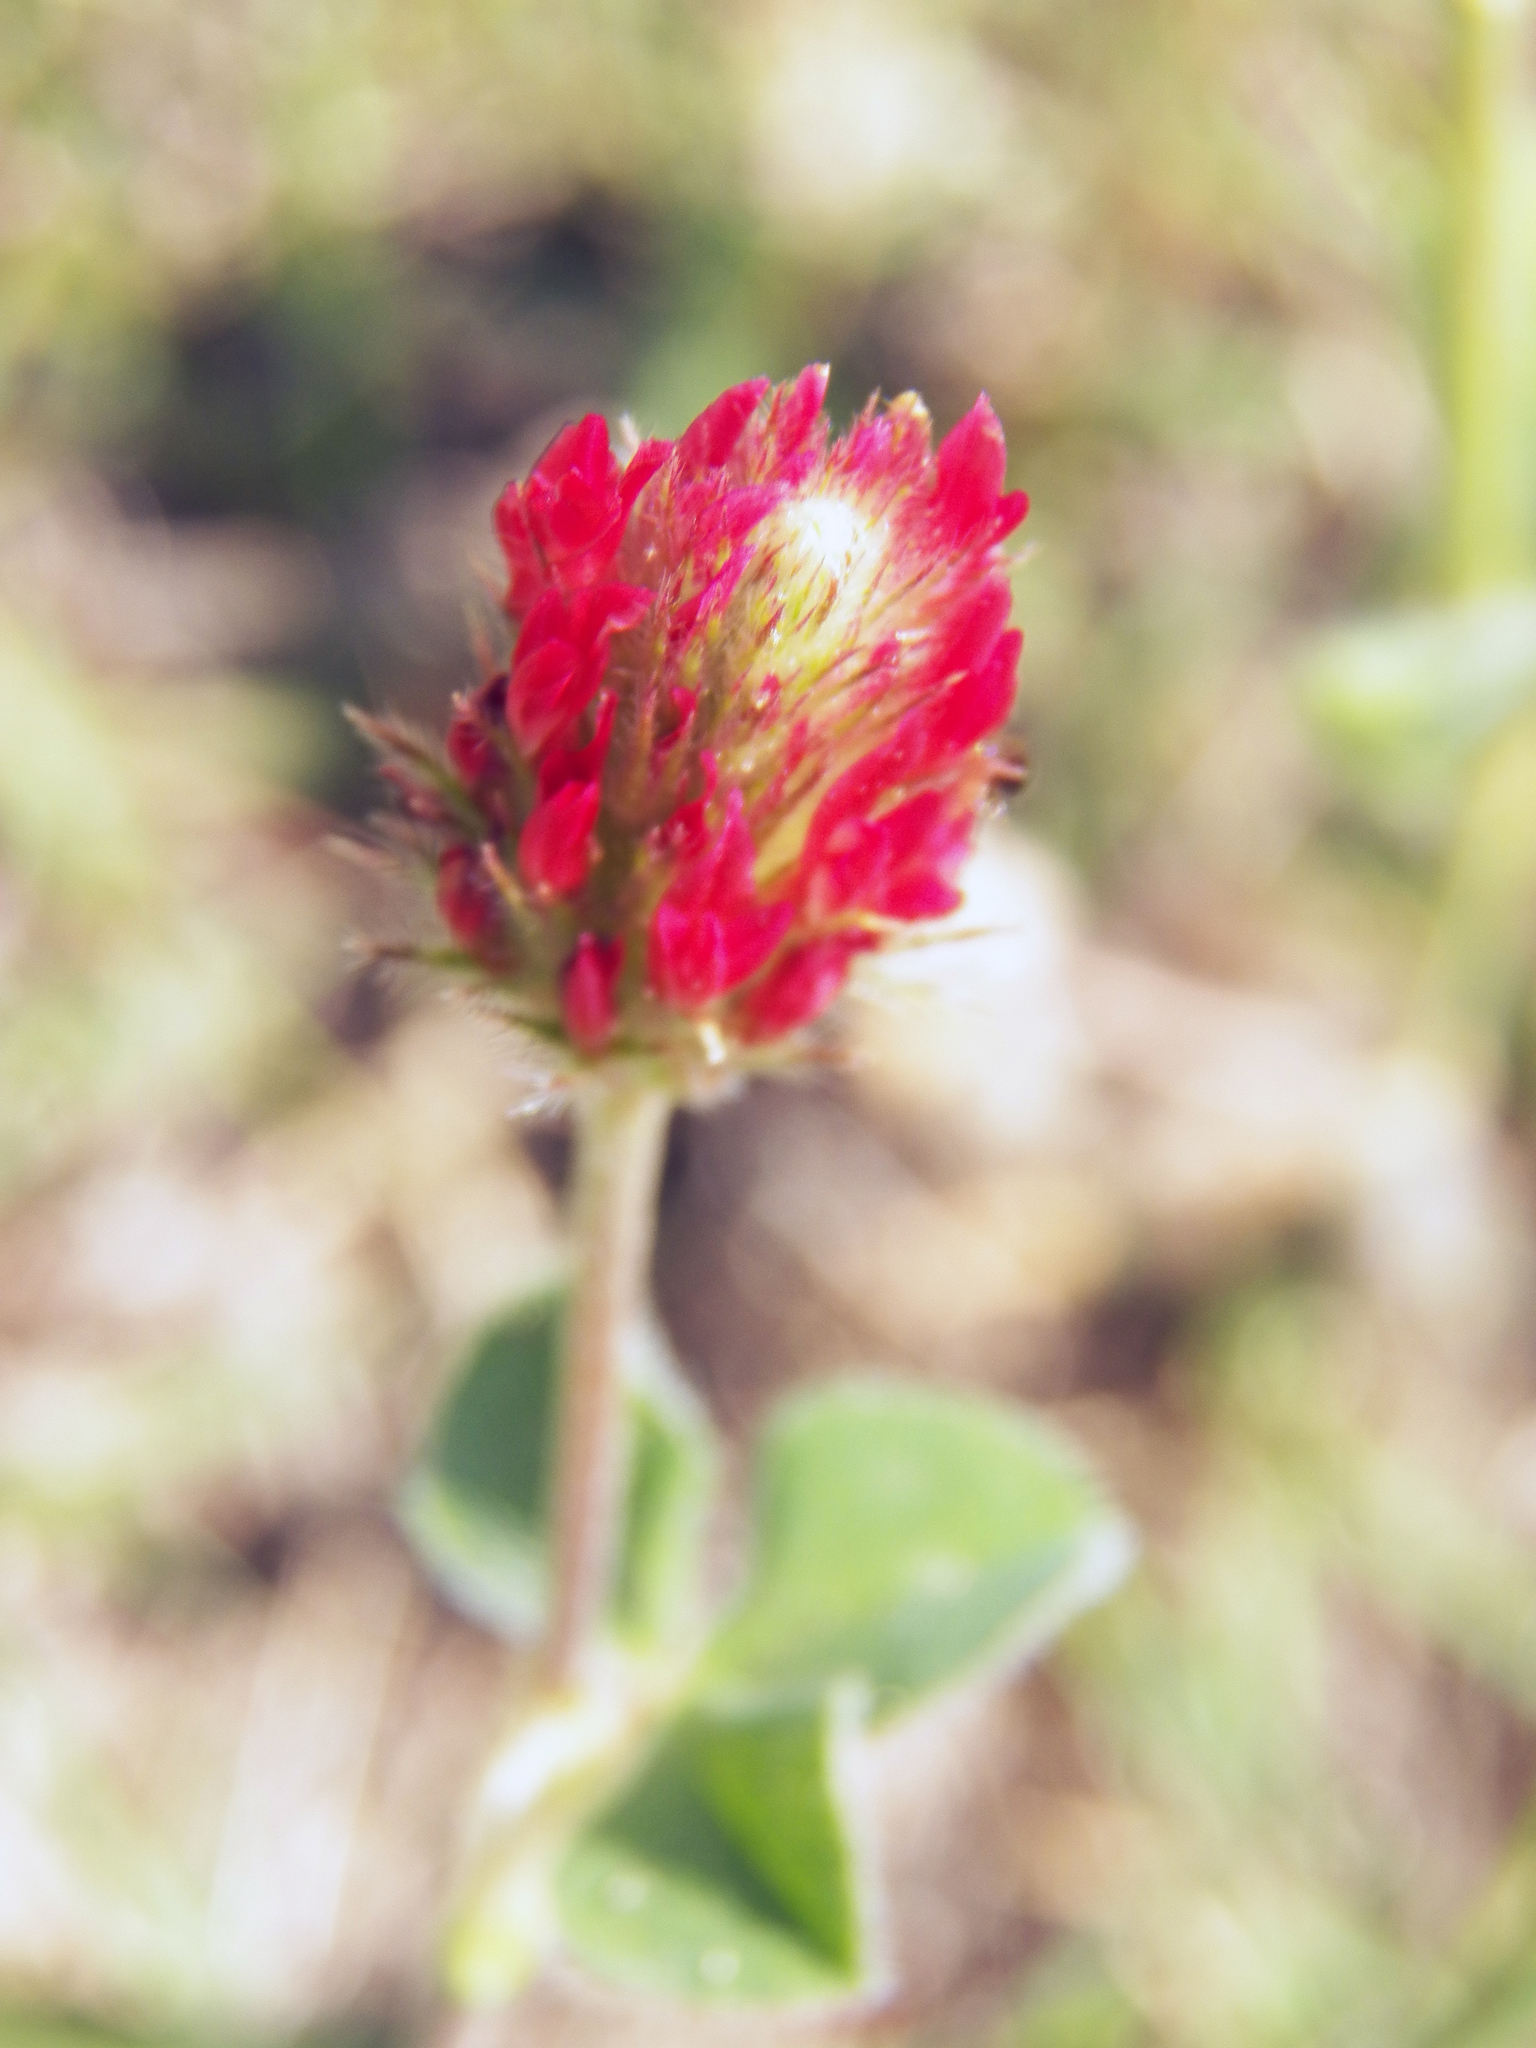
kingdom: Plantae
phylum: Tracheophyta
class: Magnoliopsida
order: Fabales
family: Fabaceae
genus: Trifolium
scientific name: Trifolium incarnatum
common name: Crimson clover
